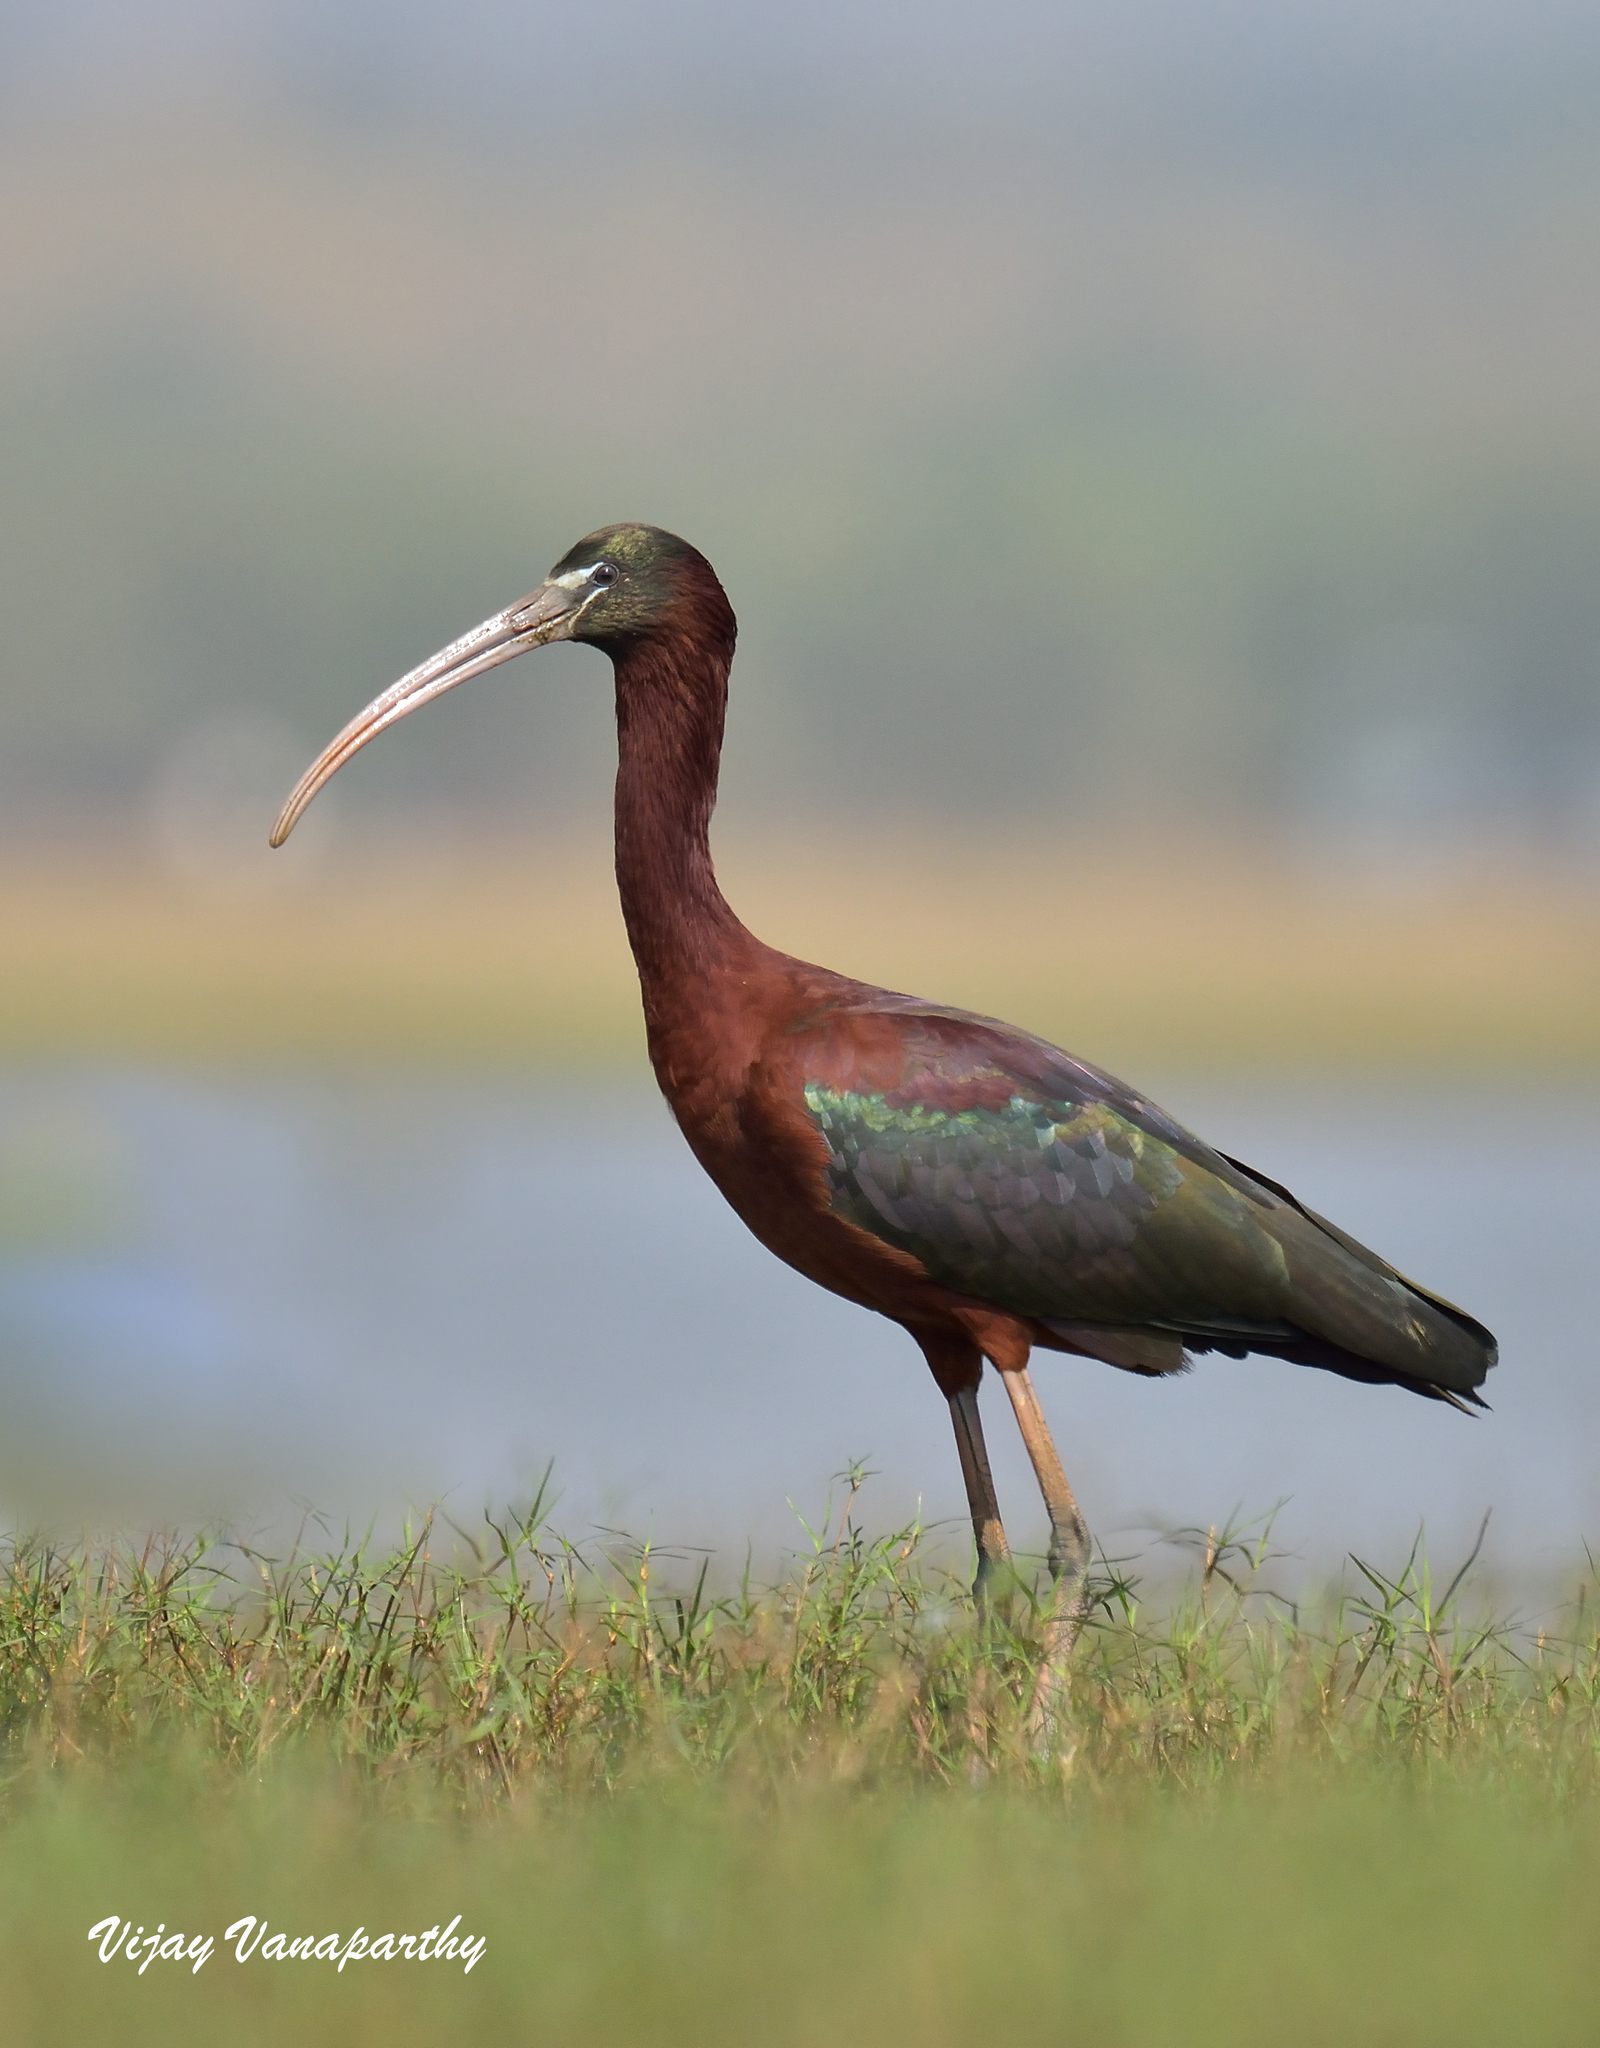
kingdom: Animalia
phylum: Chordata
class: Aves
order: Pelecaniformes
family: Threskiornithidae
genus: Plegadis
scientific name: Plegadis falcinellus
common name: Glossy ibis
